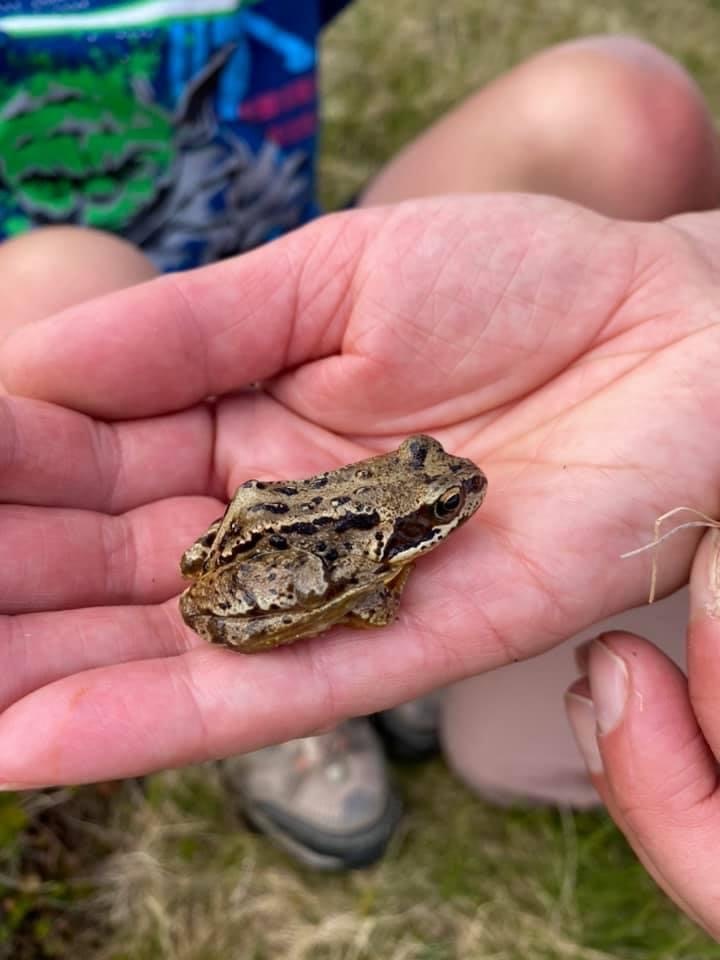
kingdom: Animalia
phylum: Chordata
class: Amphibia
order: Anura
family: Ranidae
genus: Rana
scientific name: Rana temporaria
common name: Common frog
